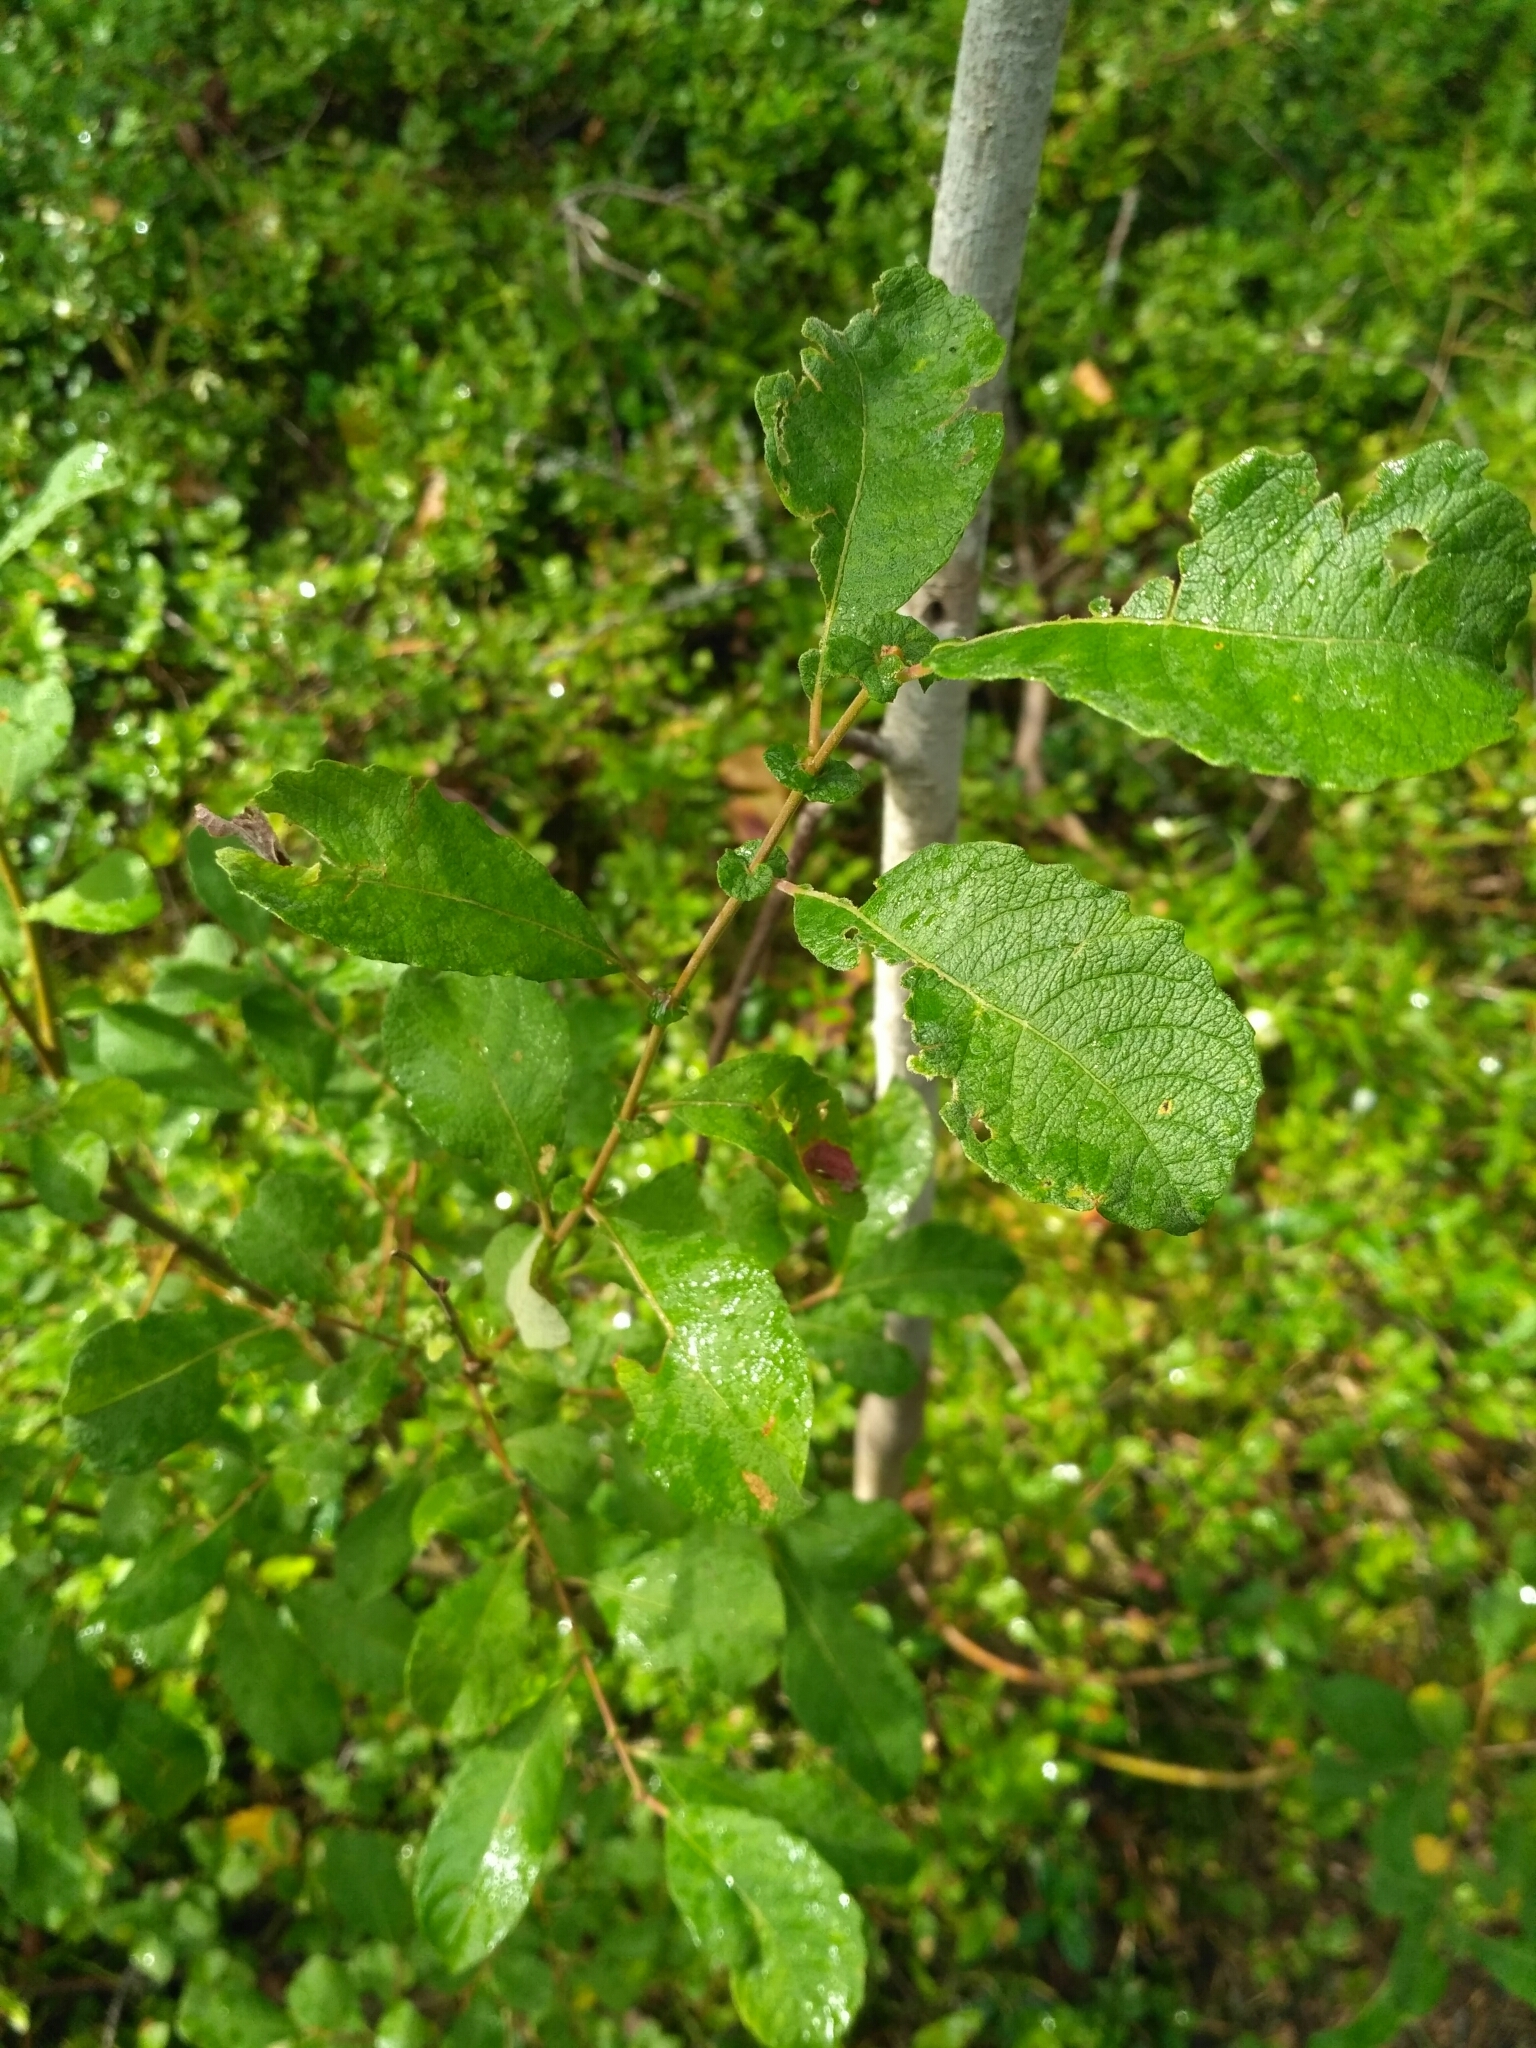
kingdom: Plantae
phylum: Tracheophyta
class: Magnoliopsida
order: Malpighiales
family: Salicaceae
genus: Salix
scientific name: Salix aurita
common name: Eared willow
